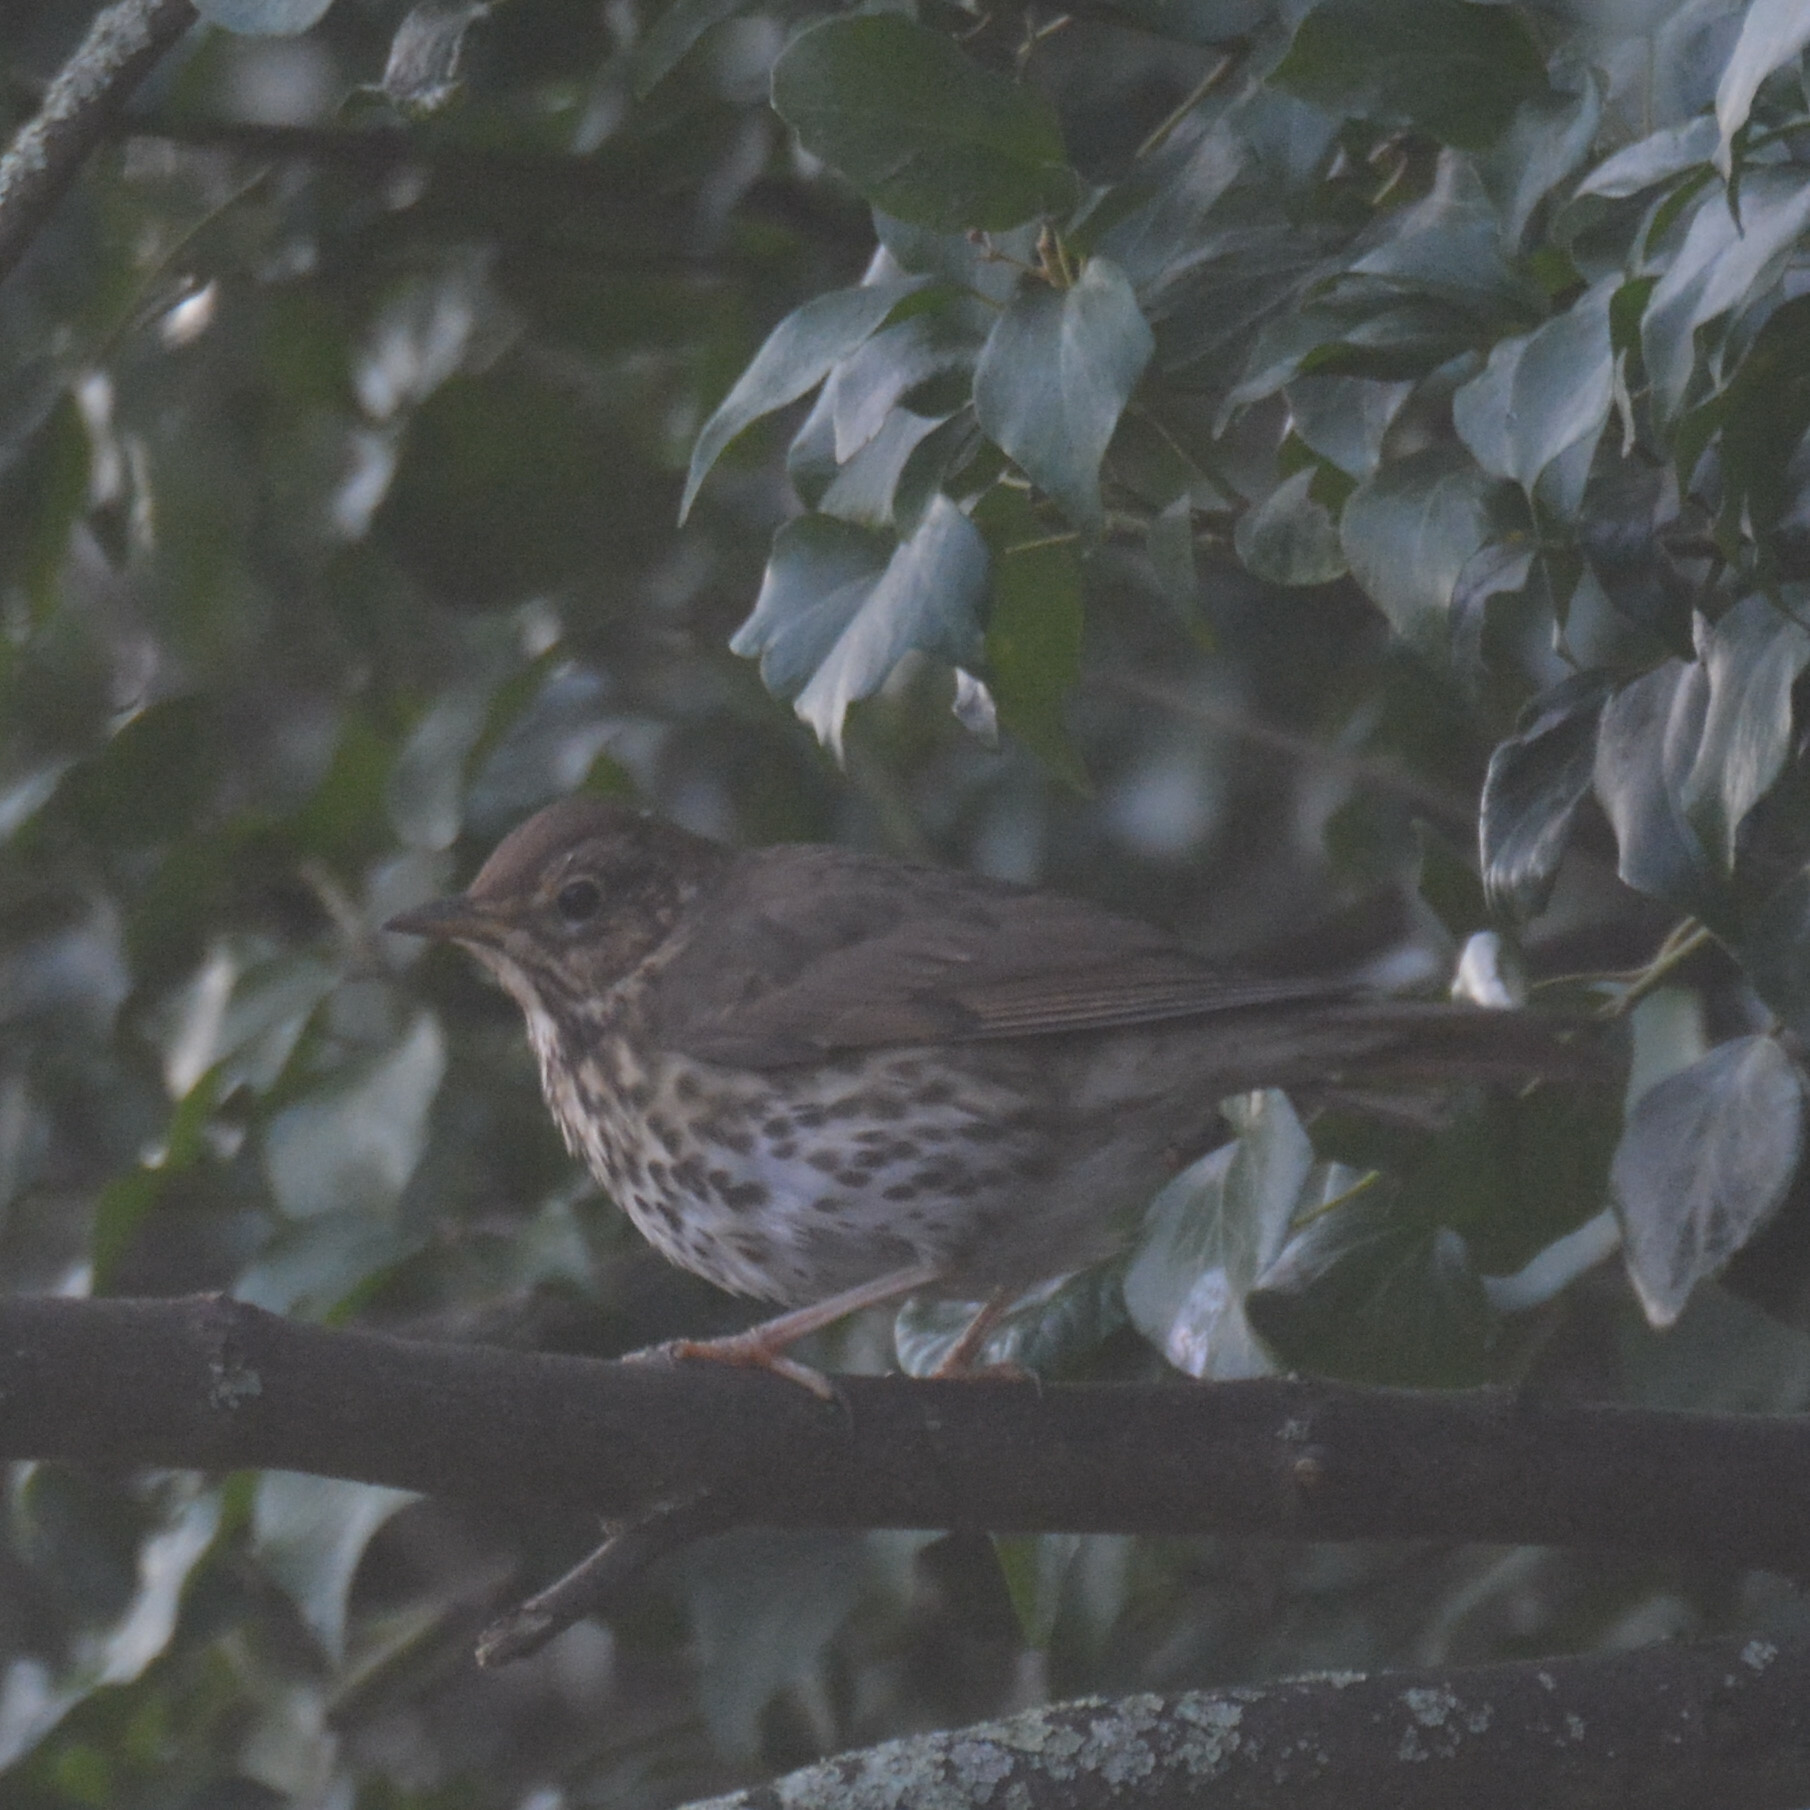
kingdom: Animalia
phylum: Chordata
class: Aves
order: Passeriformes
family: Turdidae
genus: Turdus
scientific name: Turdus philomelos
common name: Song thrush
